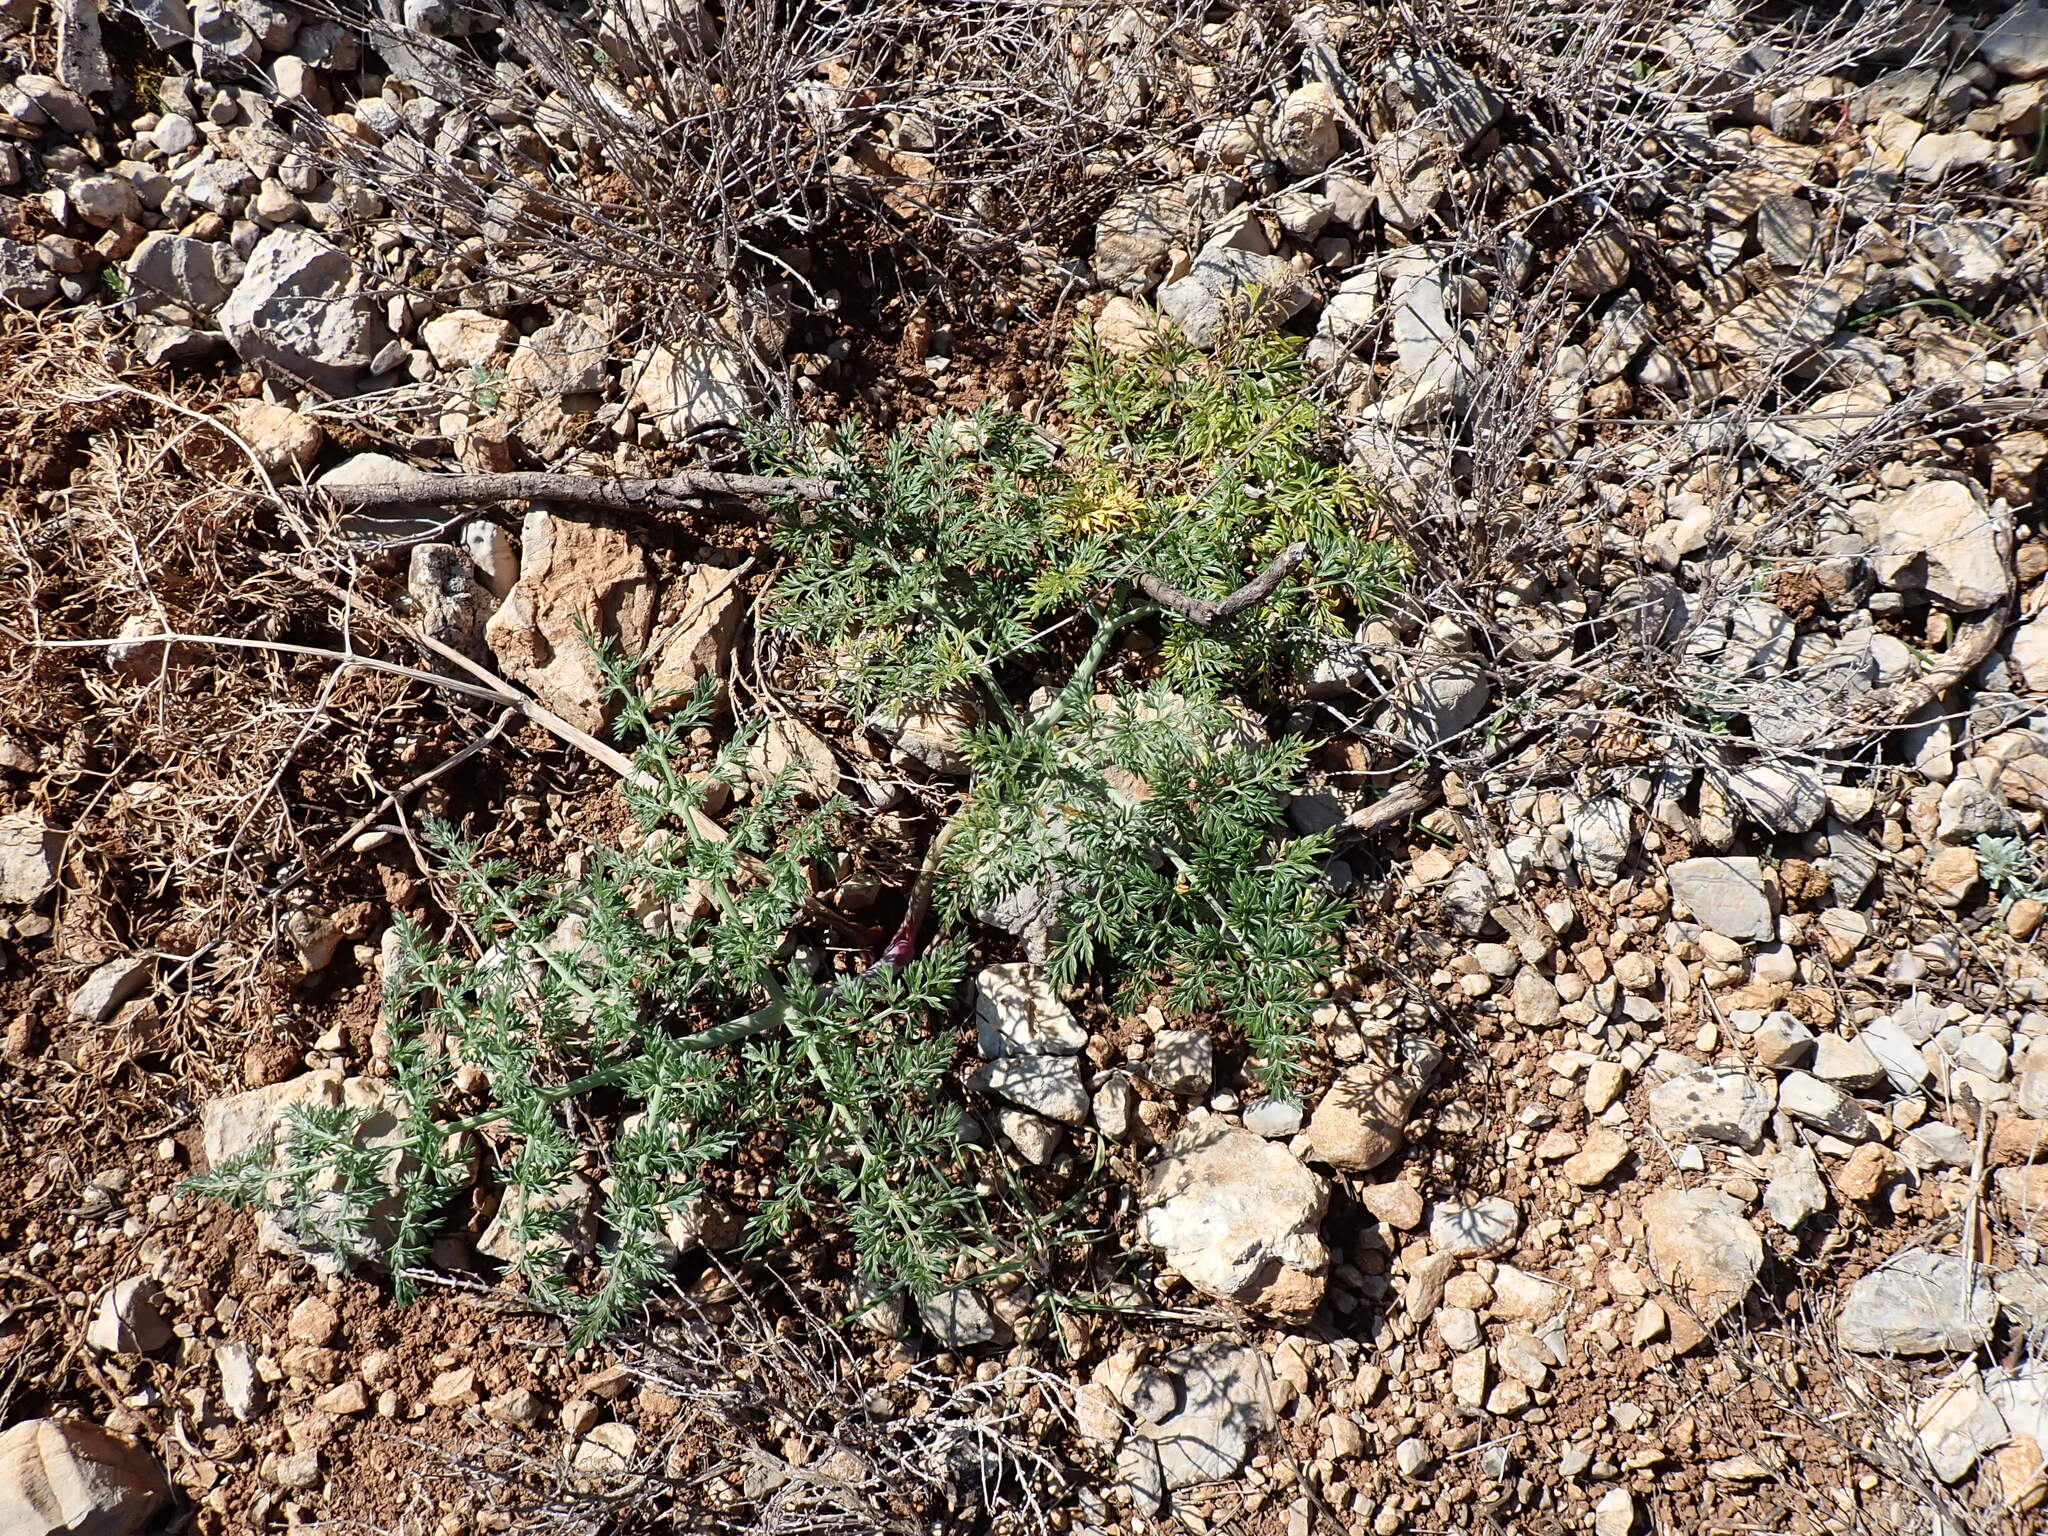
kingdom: Plantae
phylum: Tracheophyta
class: Magnoliopsida
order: Apiales
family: Apiaceae
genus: Ferula
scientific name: Ferula glauca
